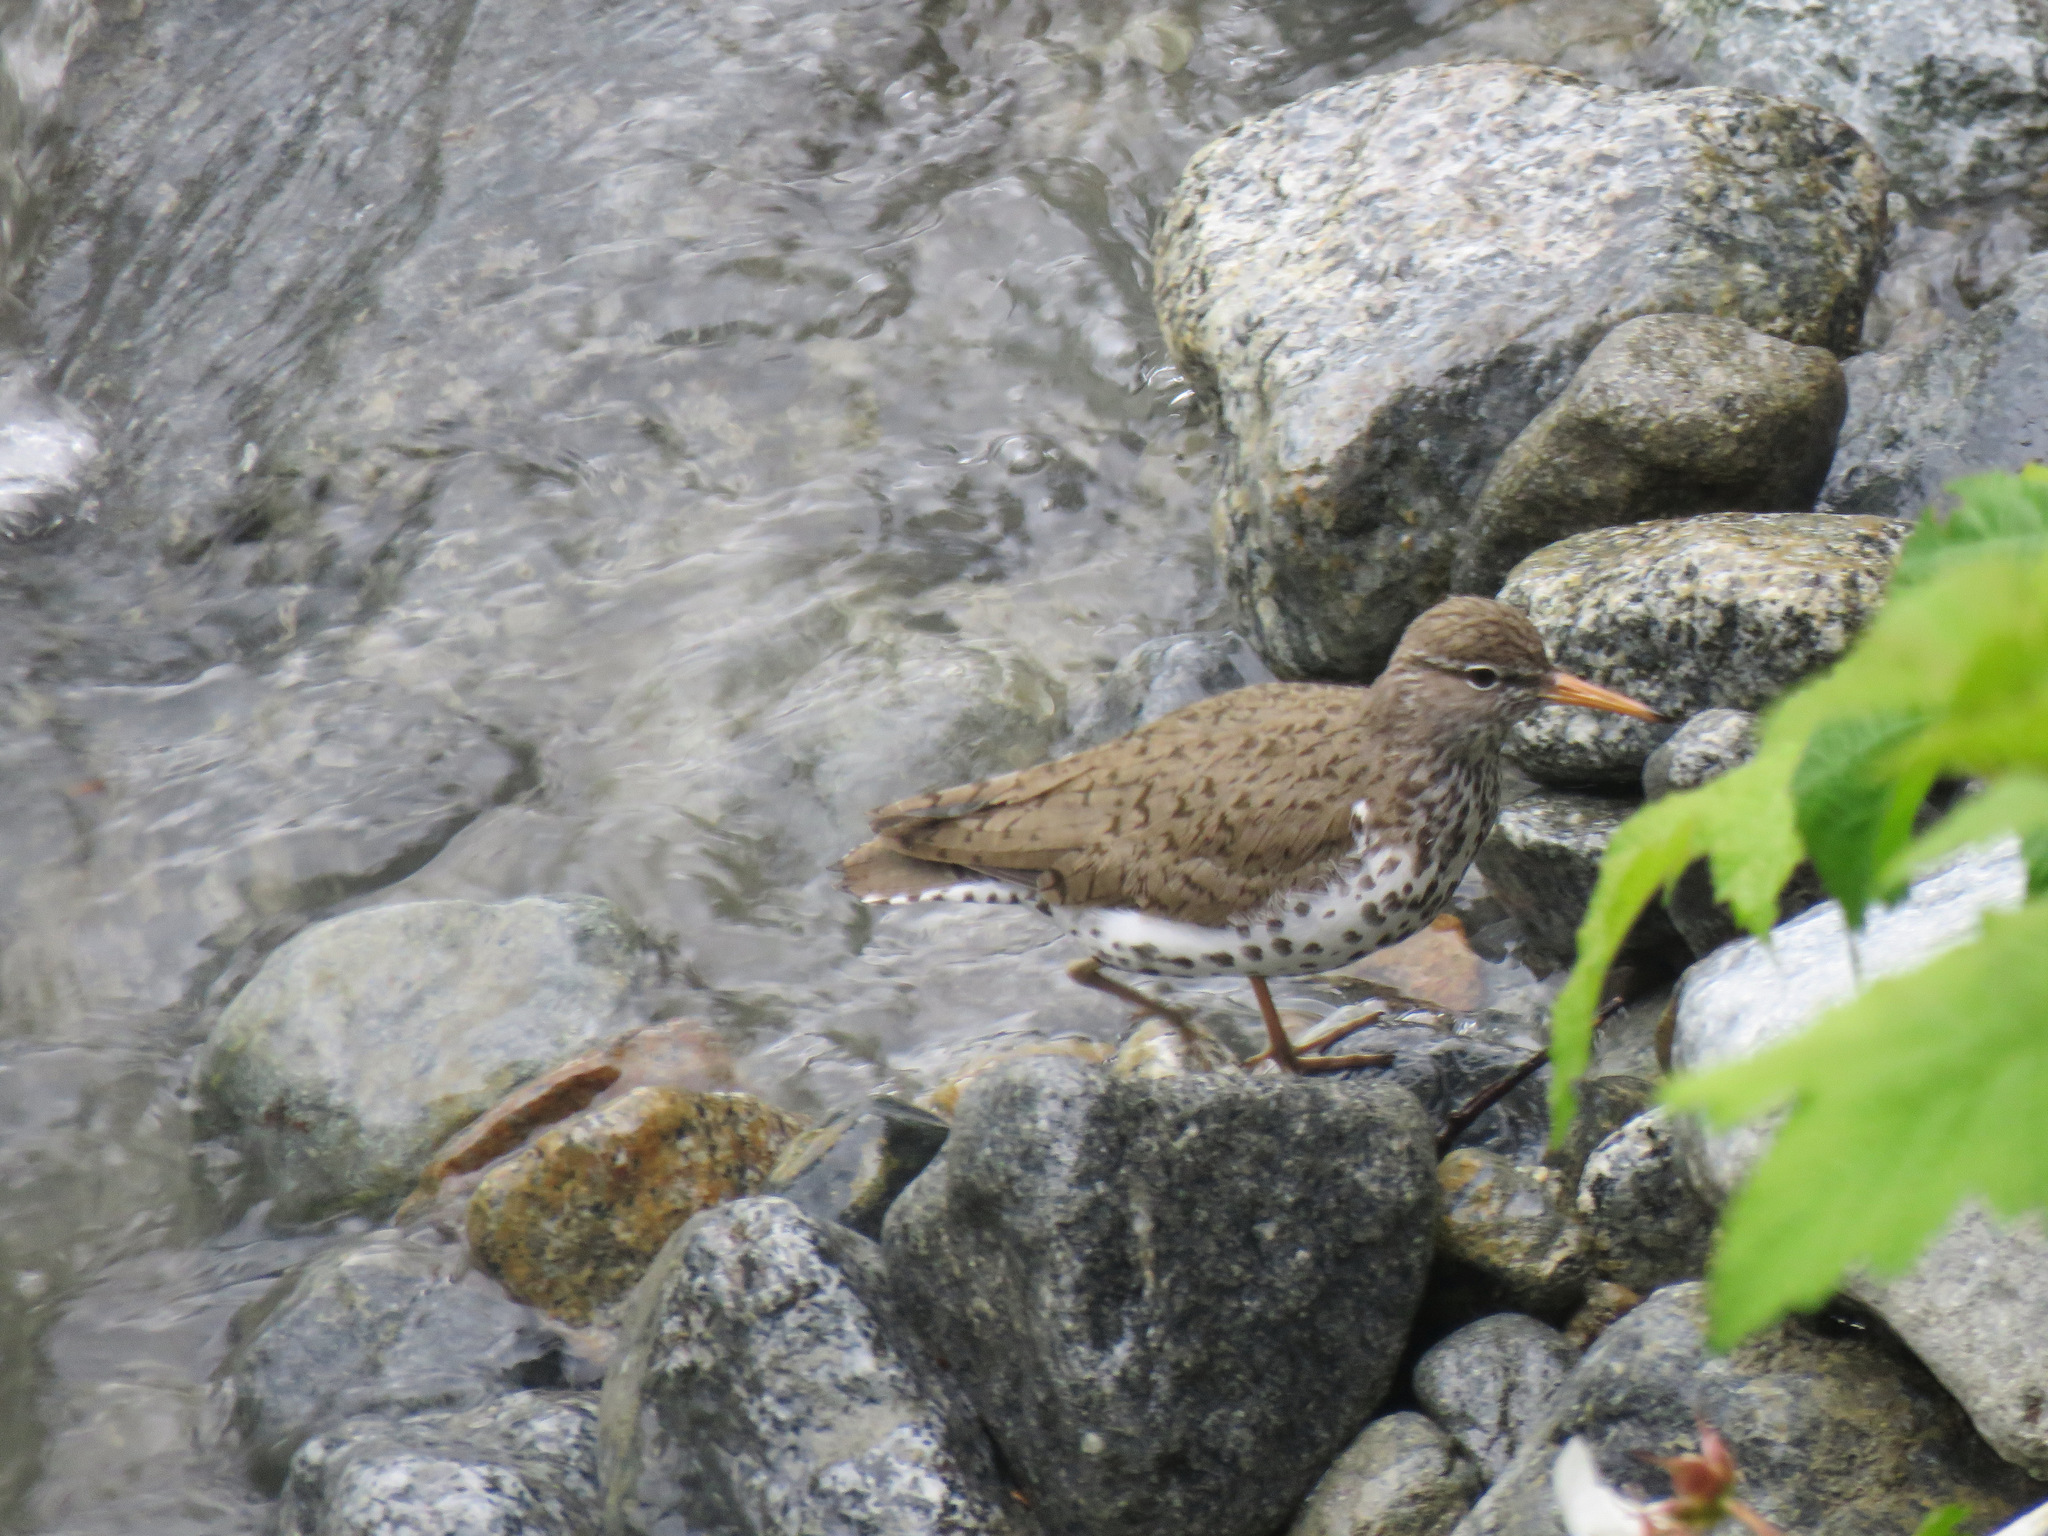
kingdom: Animalia
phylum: Chordata
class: Aves
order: Charadriiformes
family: Scolopacidae
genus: Actitis
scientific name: Actitis macularius
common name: Spotted sandpiper
